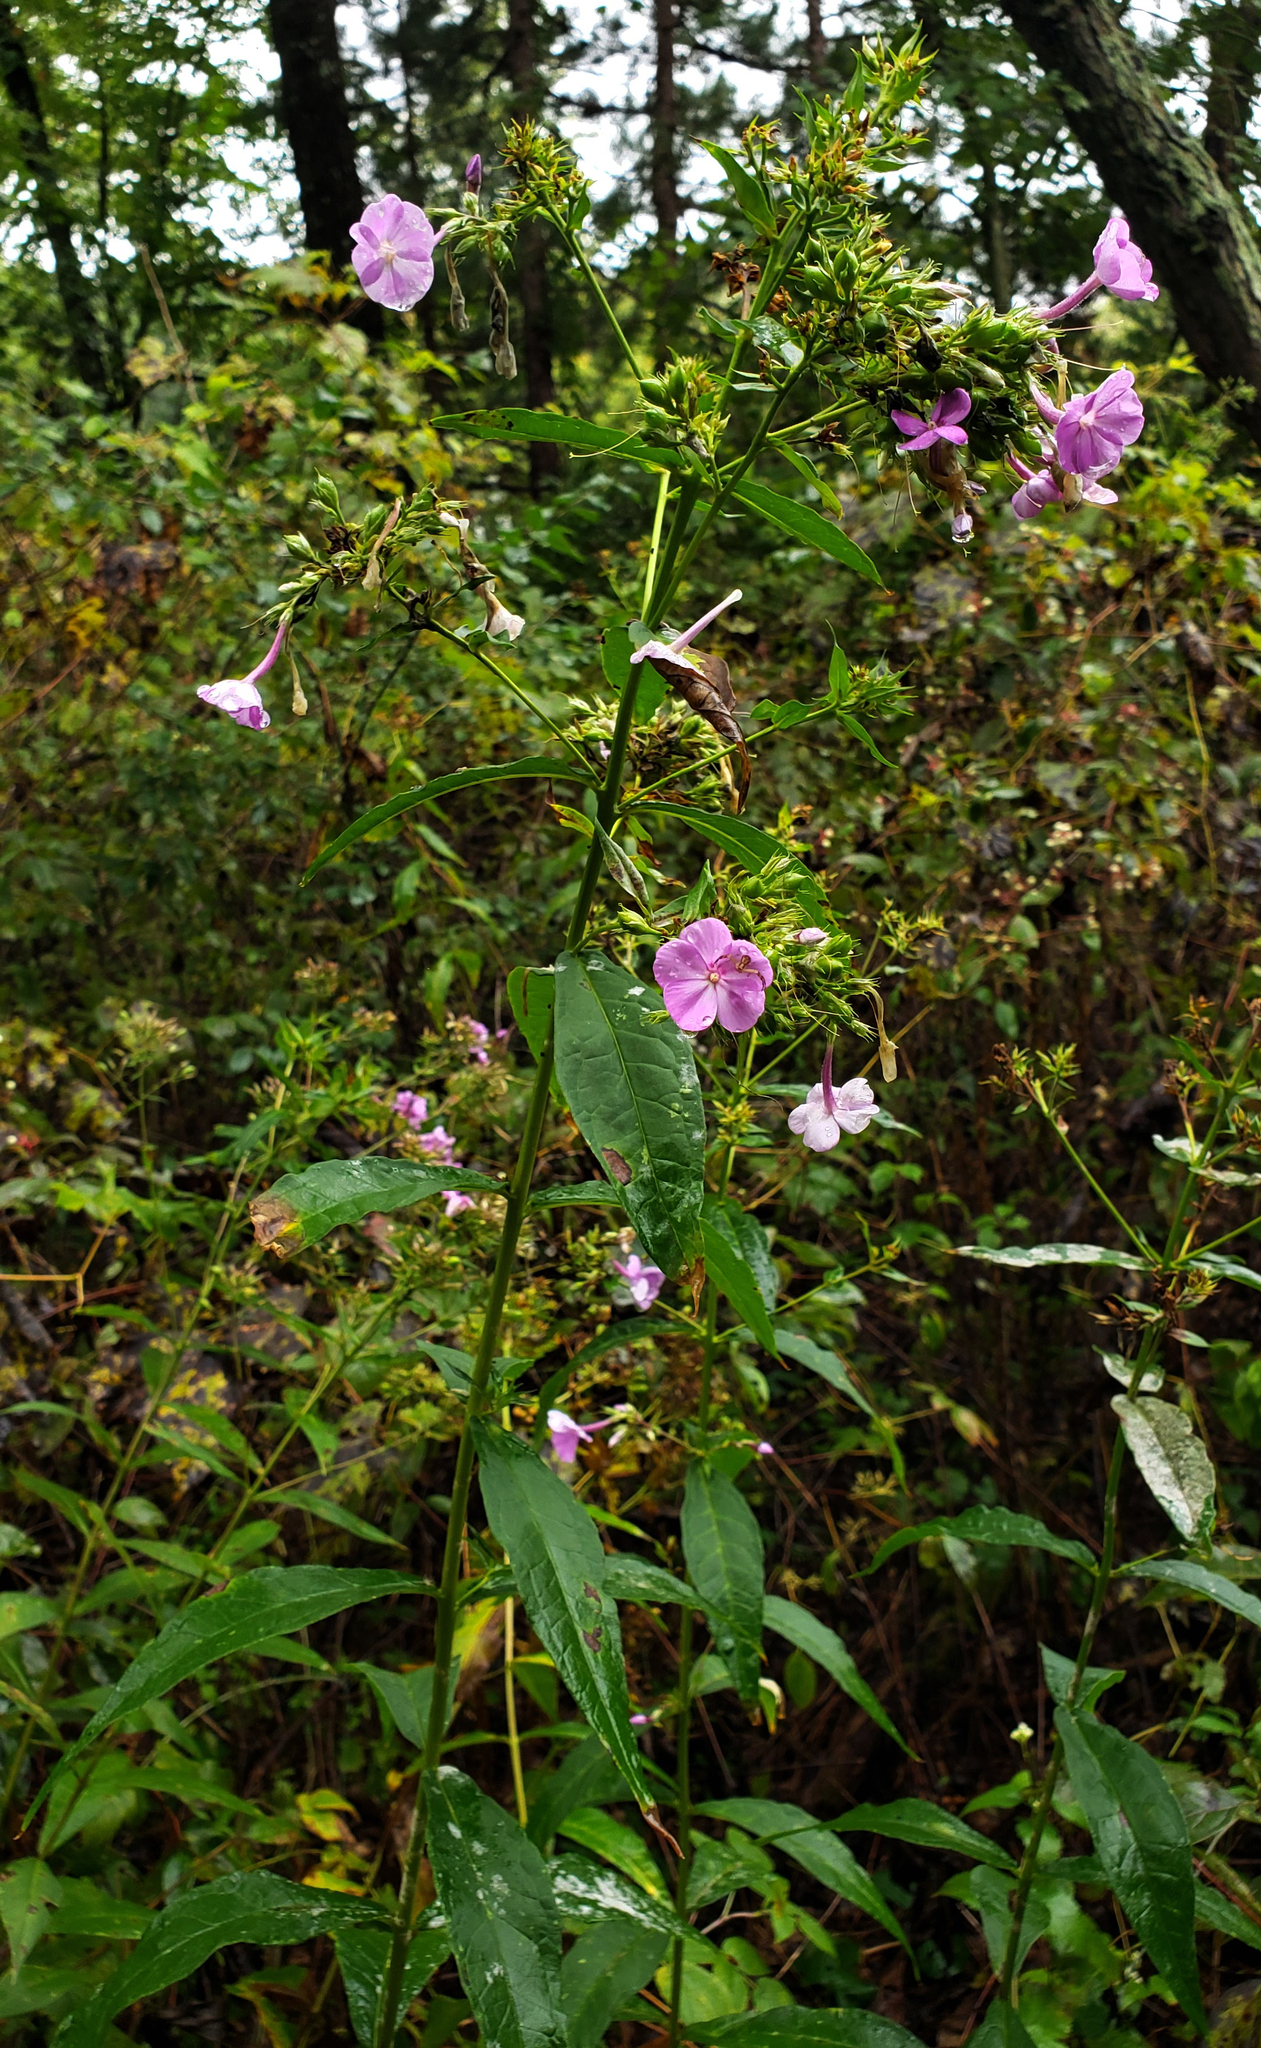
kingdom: Plantae
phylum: Tracheophyta
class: Magnoliopsida
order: Ericales
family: Polemoniaceae
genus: Phlox
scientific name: Phlox paniculata
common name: Fall phlox
